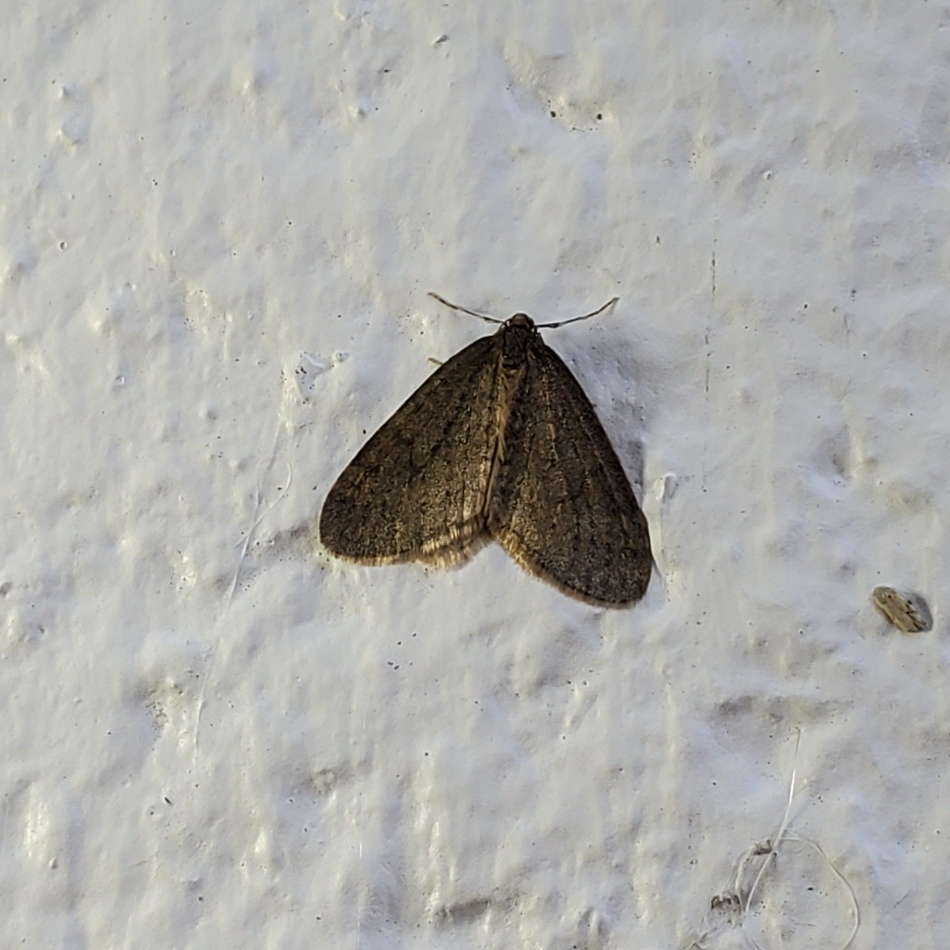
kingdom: Animalia
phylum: Arthropoda
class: Insecta
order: Lepidoptera
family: Geometridae
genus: Operophtera
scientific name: Operophtera
